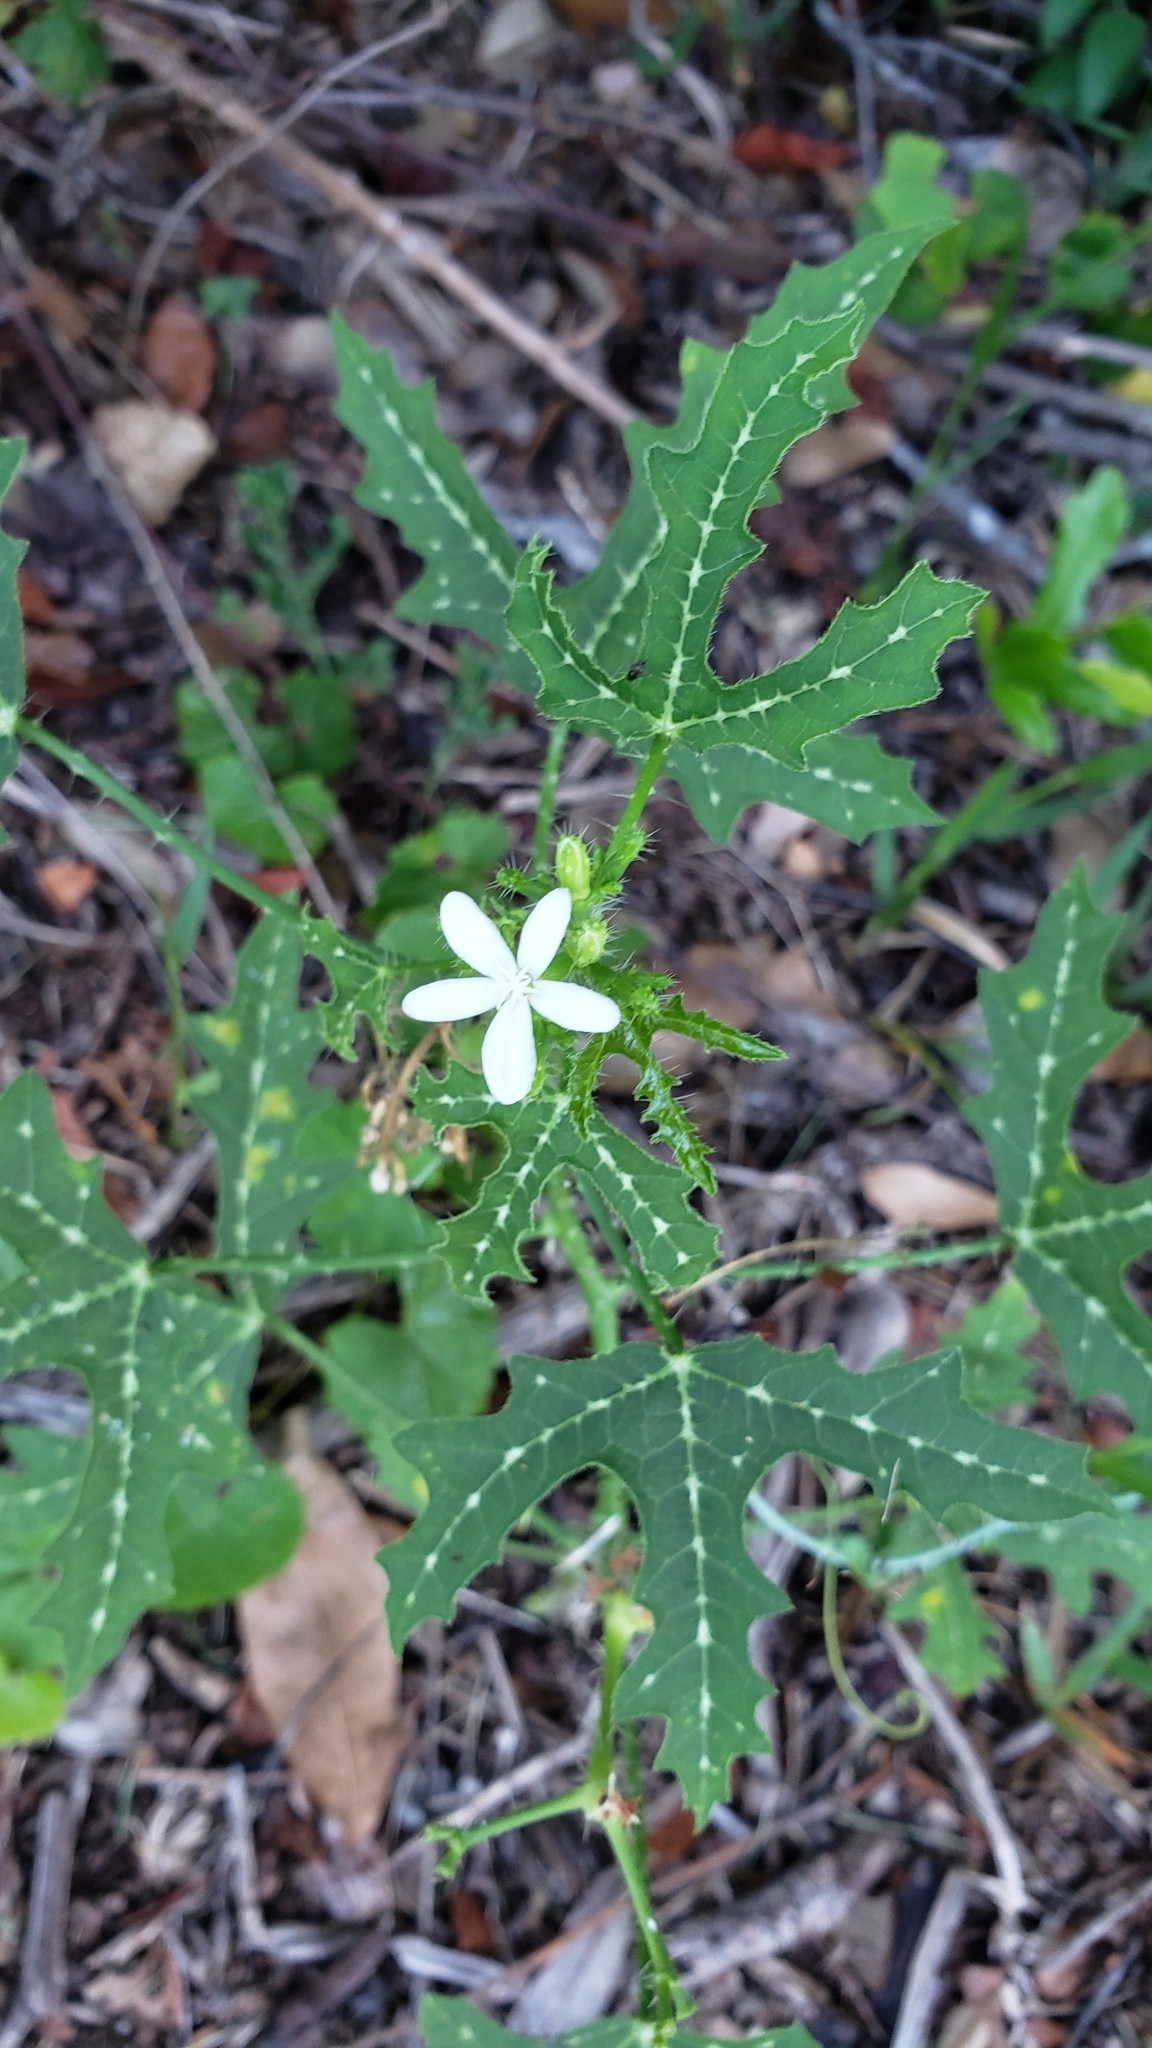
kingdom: Plantae
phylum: Tracheophyta
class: Magnoliopsida
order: Malpighiales
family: Euphorbiaceae
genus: Cnidoscolus
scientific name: Cnidoscolus stimulosus
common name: Bull-nettle
